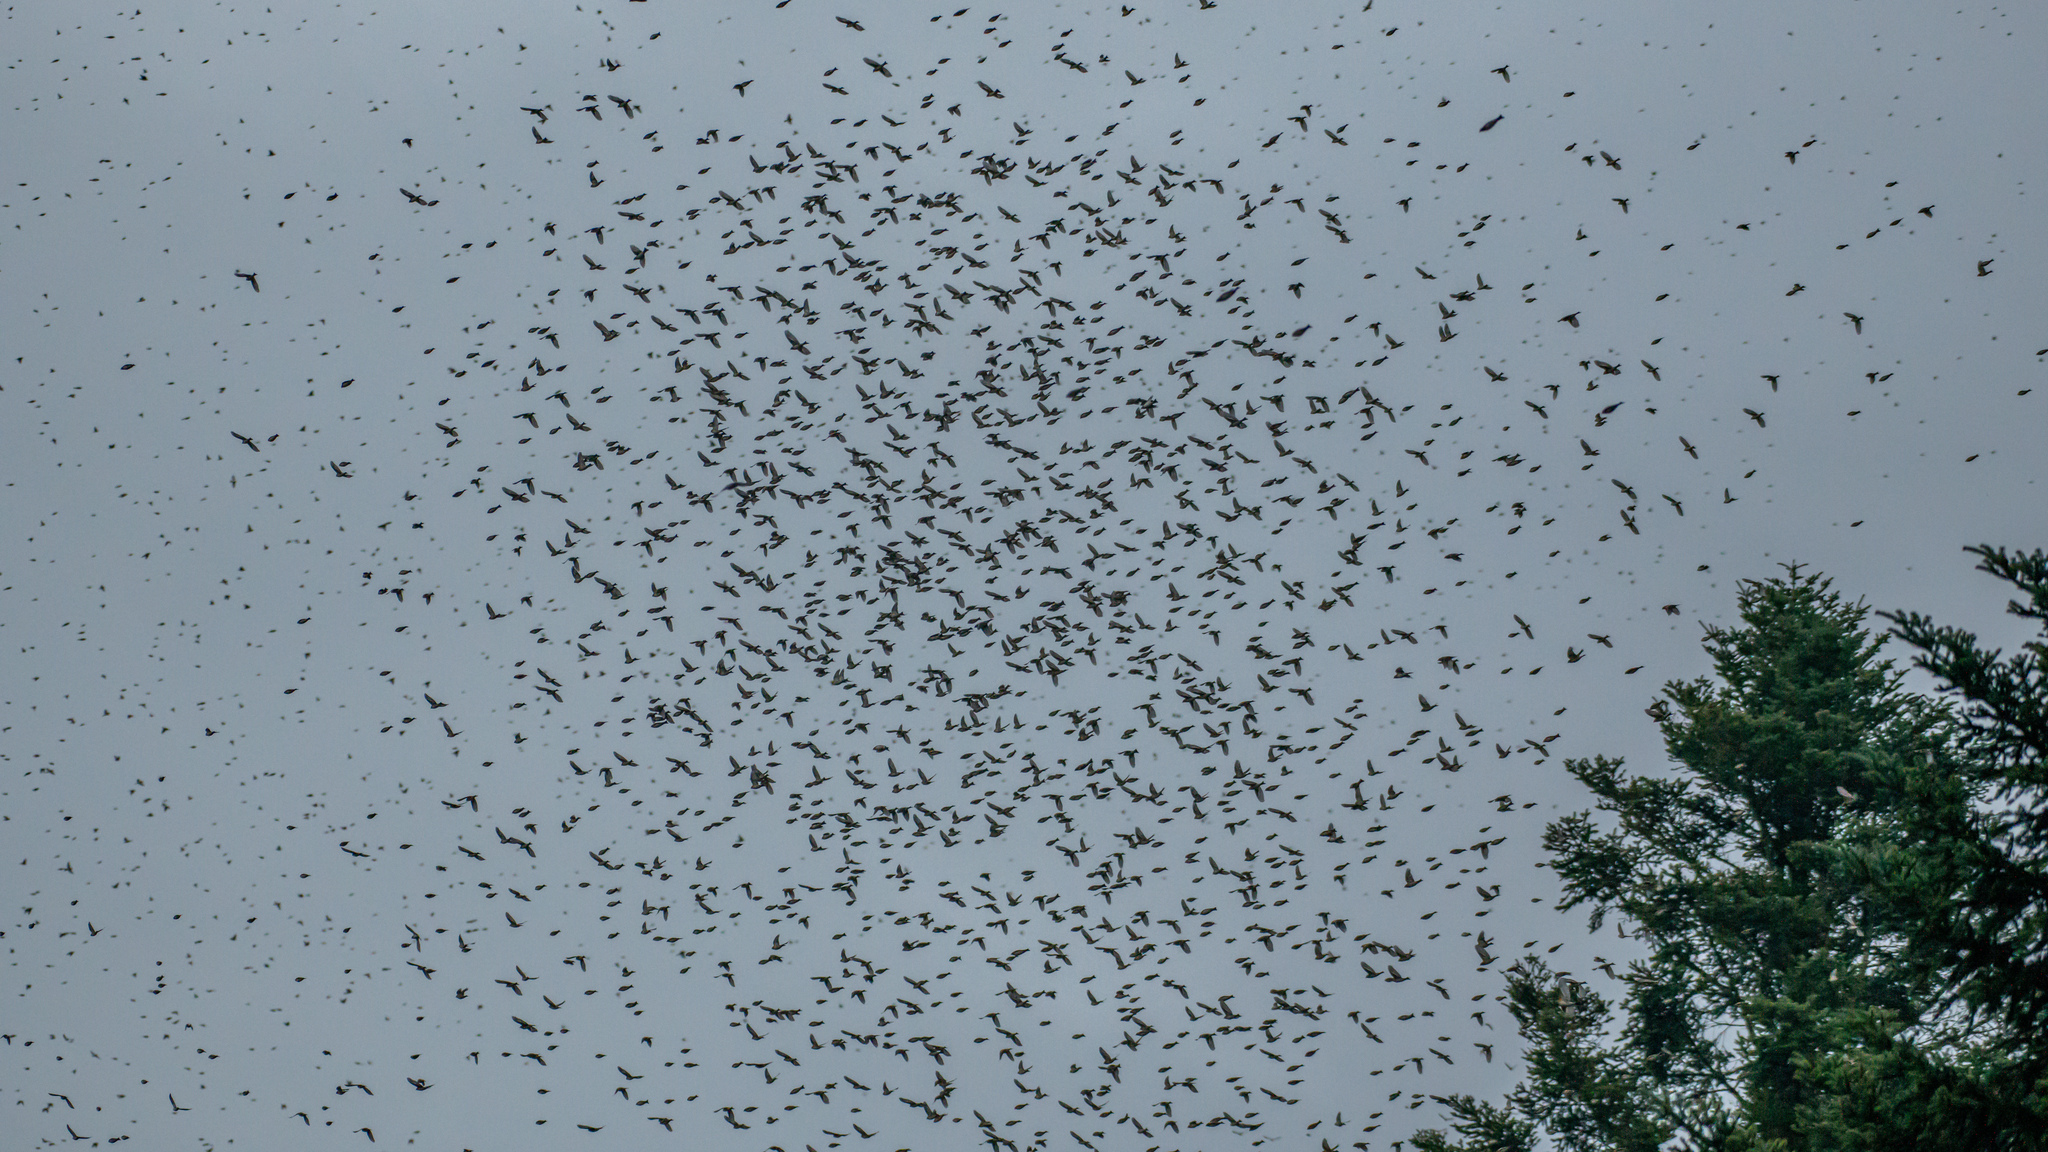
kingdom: Animalia
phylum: Chordata
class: Aves
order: Passeriformes
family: Fringillidae
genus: Fringilla
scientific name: Fringilla montifringilla
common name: Brambling
